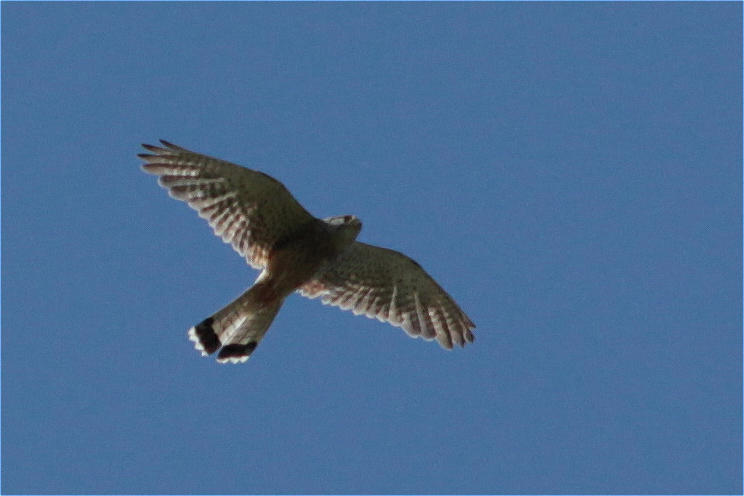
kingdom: Animalia
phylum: Chordata
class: Aves
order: Falconiformes
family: Falconidae
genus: Falco
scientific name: Falco tinnunculus
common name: Common kestrel
